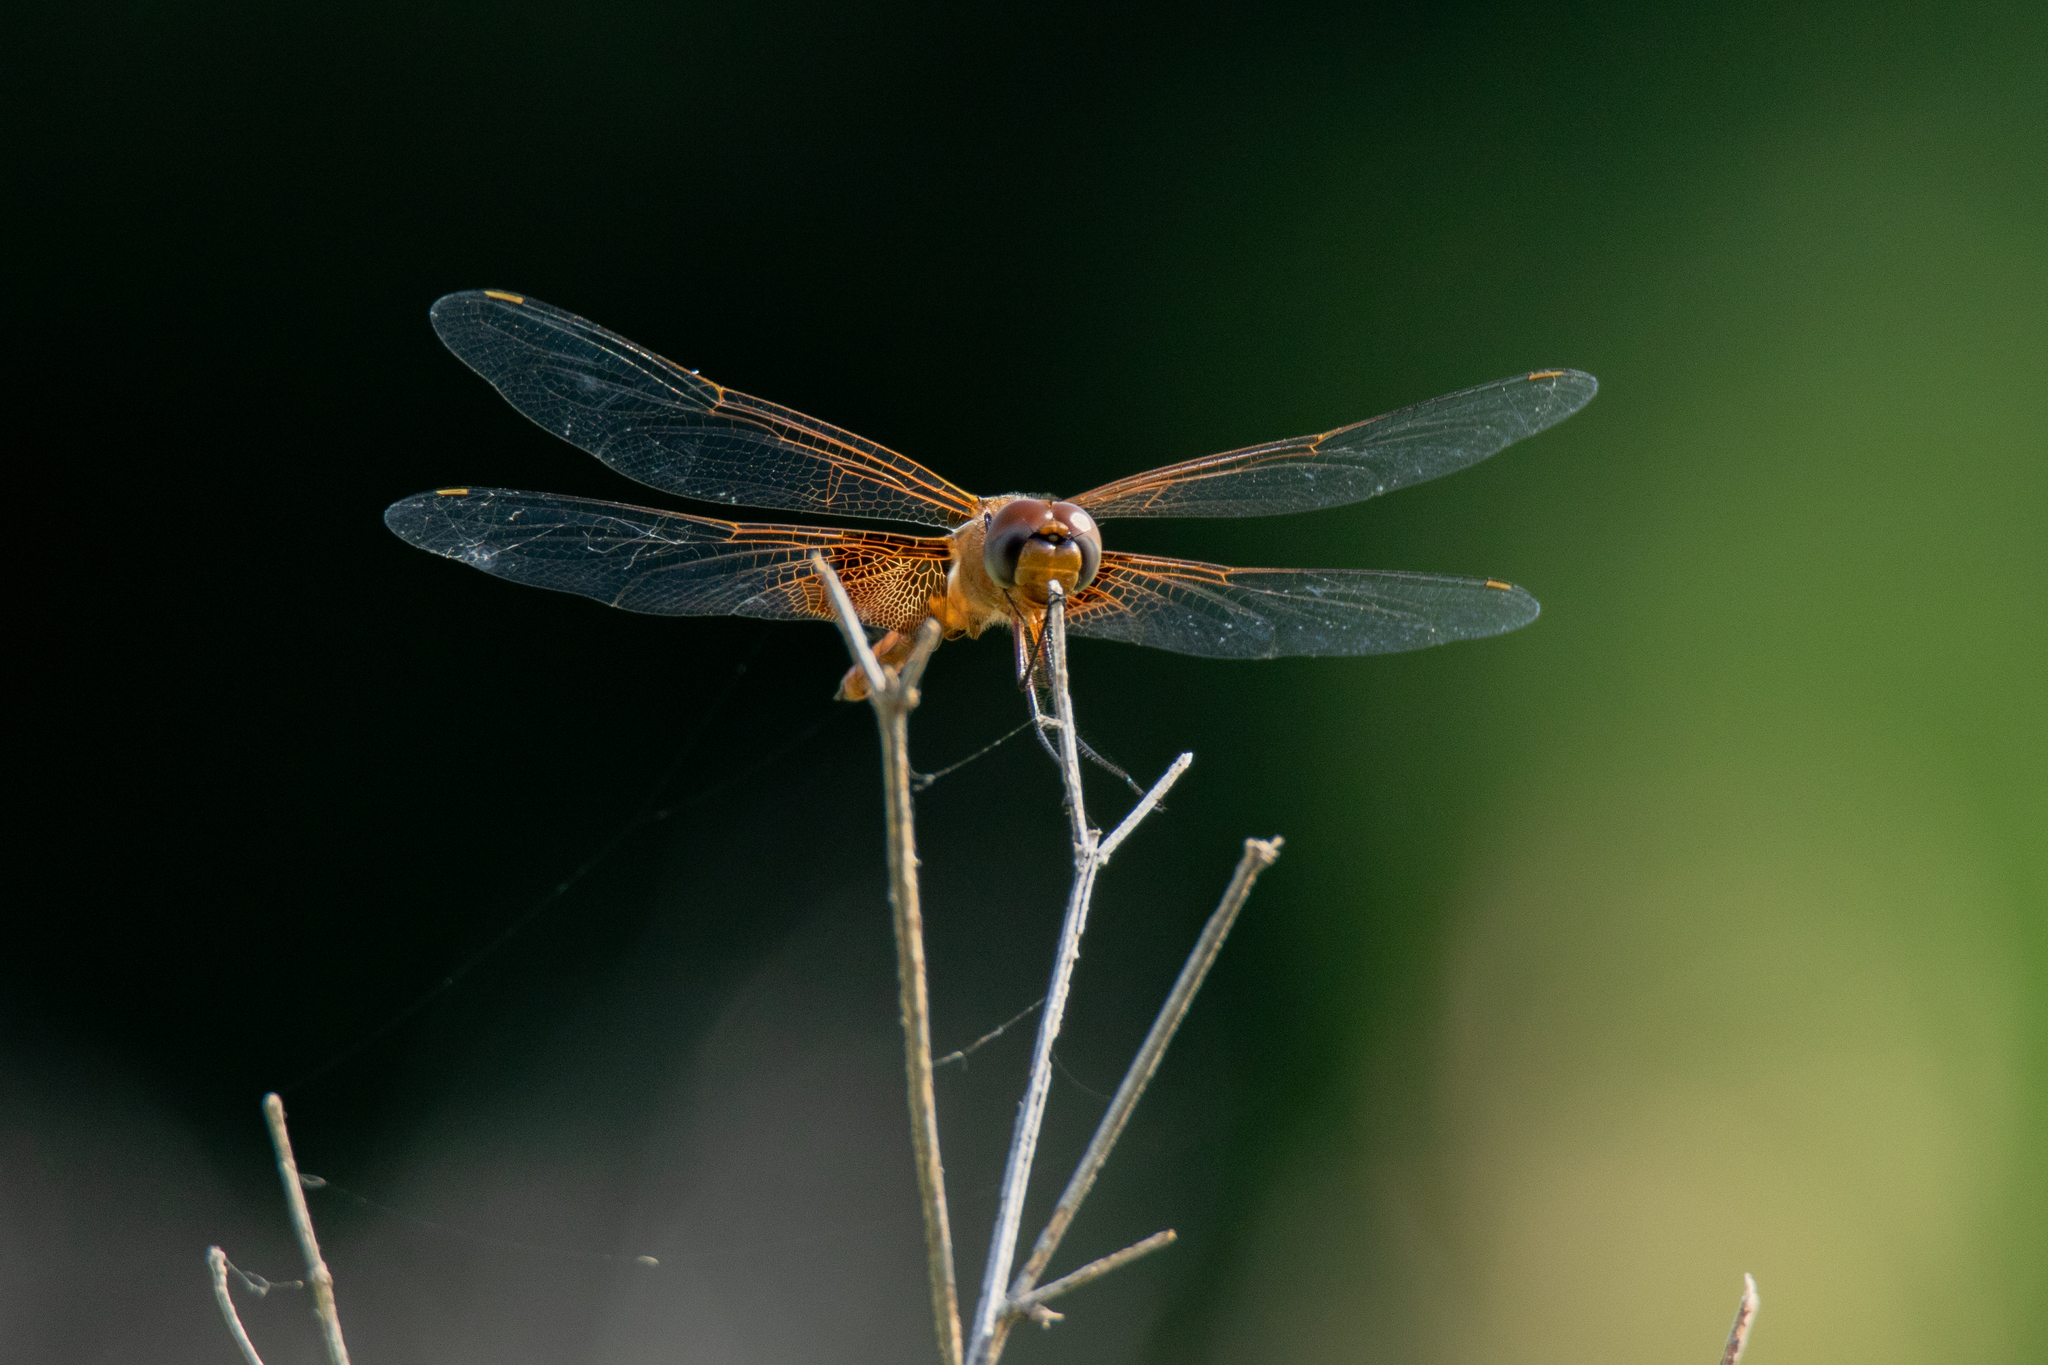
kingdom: Animalia
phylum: Arthropoda
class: Insecta
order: Odonata
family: Libellulidae
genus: Tramea
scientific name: Tramea onusta
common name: Red saddlebags
